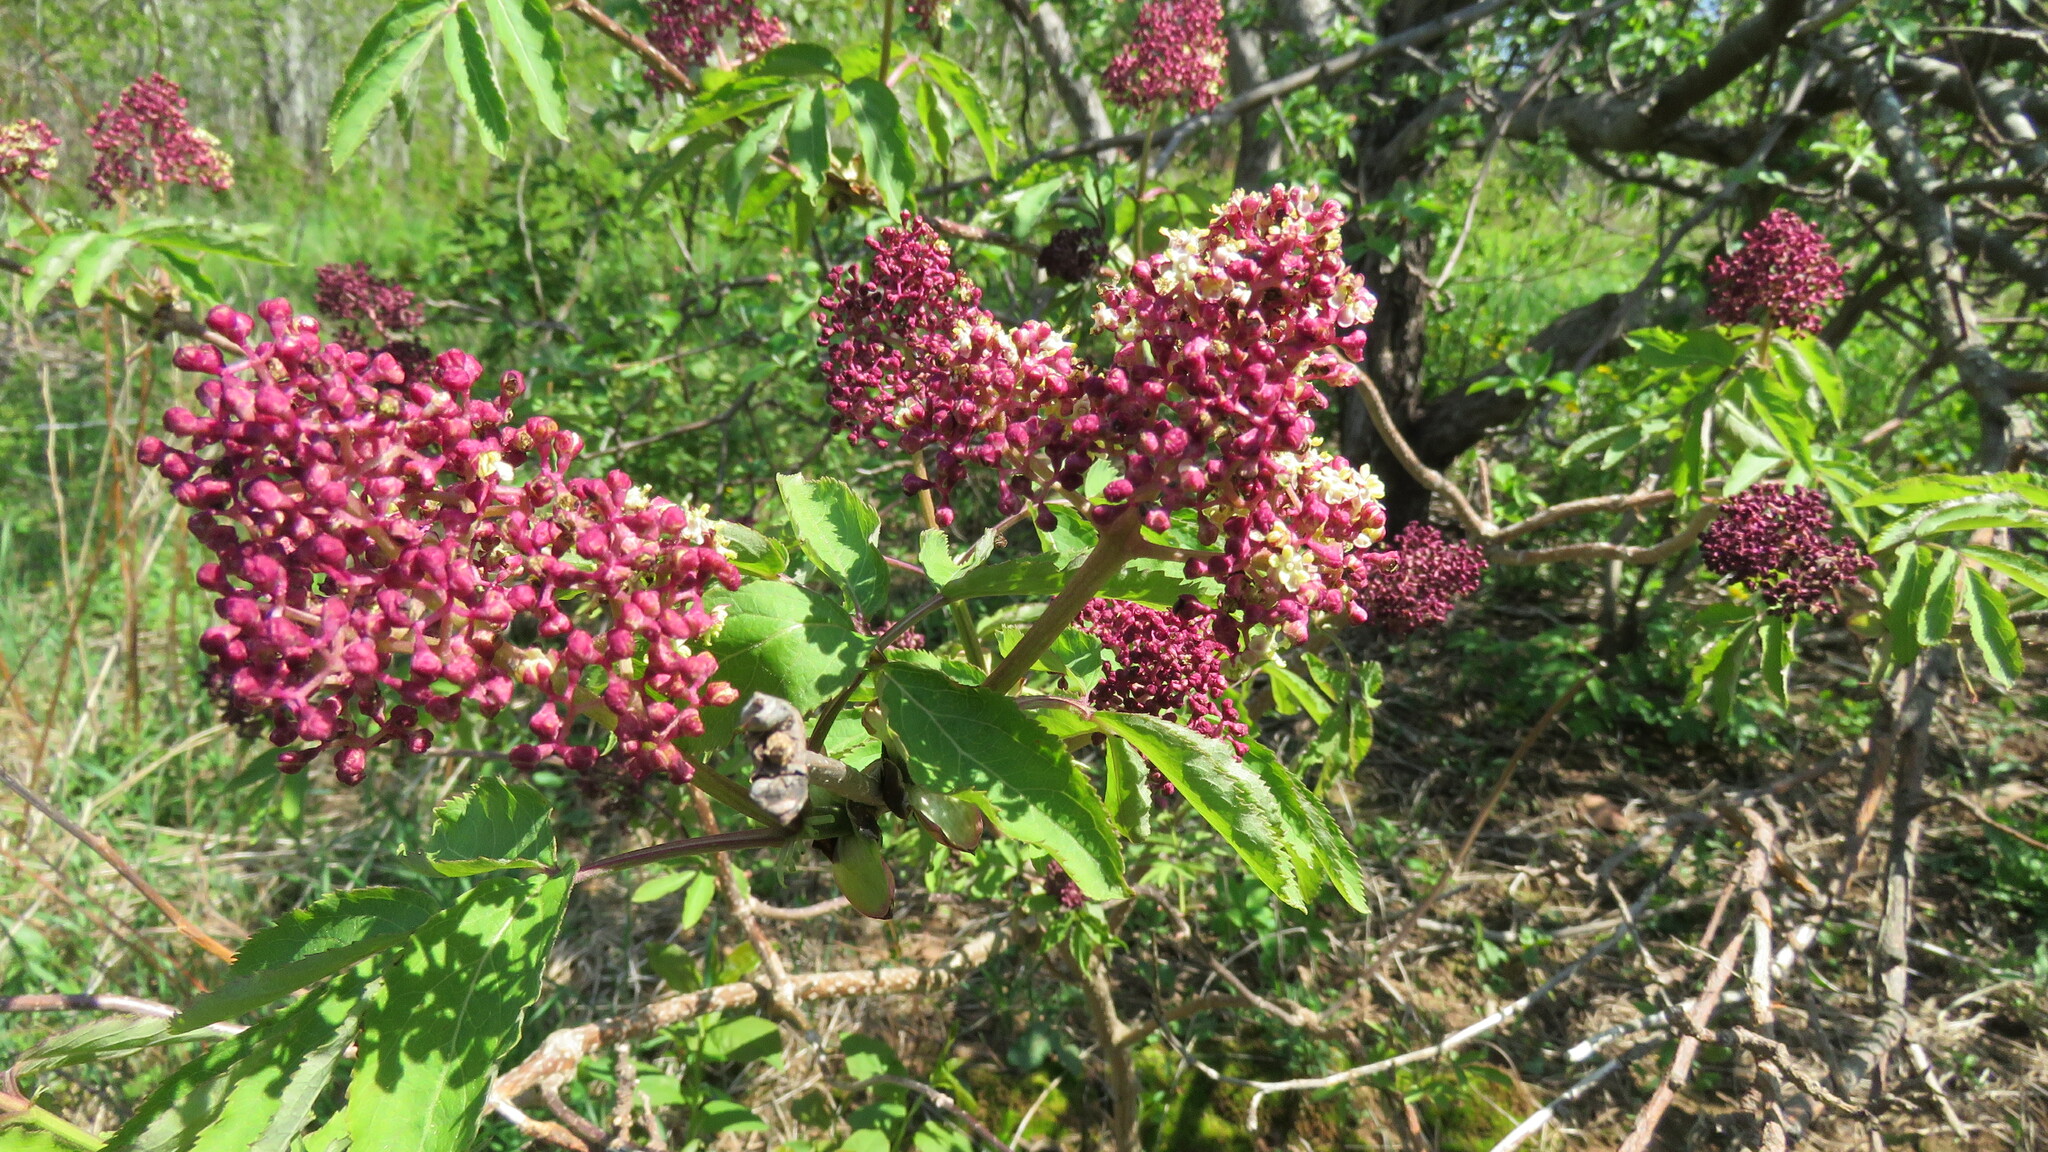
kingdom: Plantae
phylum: Tracheophyta
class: Magnoliopsida
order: Dipsacales
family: Viburnaceae
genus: Sambucus
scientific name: Sambucus racemosa
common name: Red-berried elder
